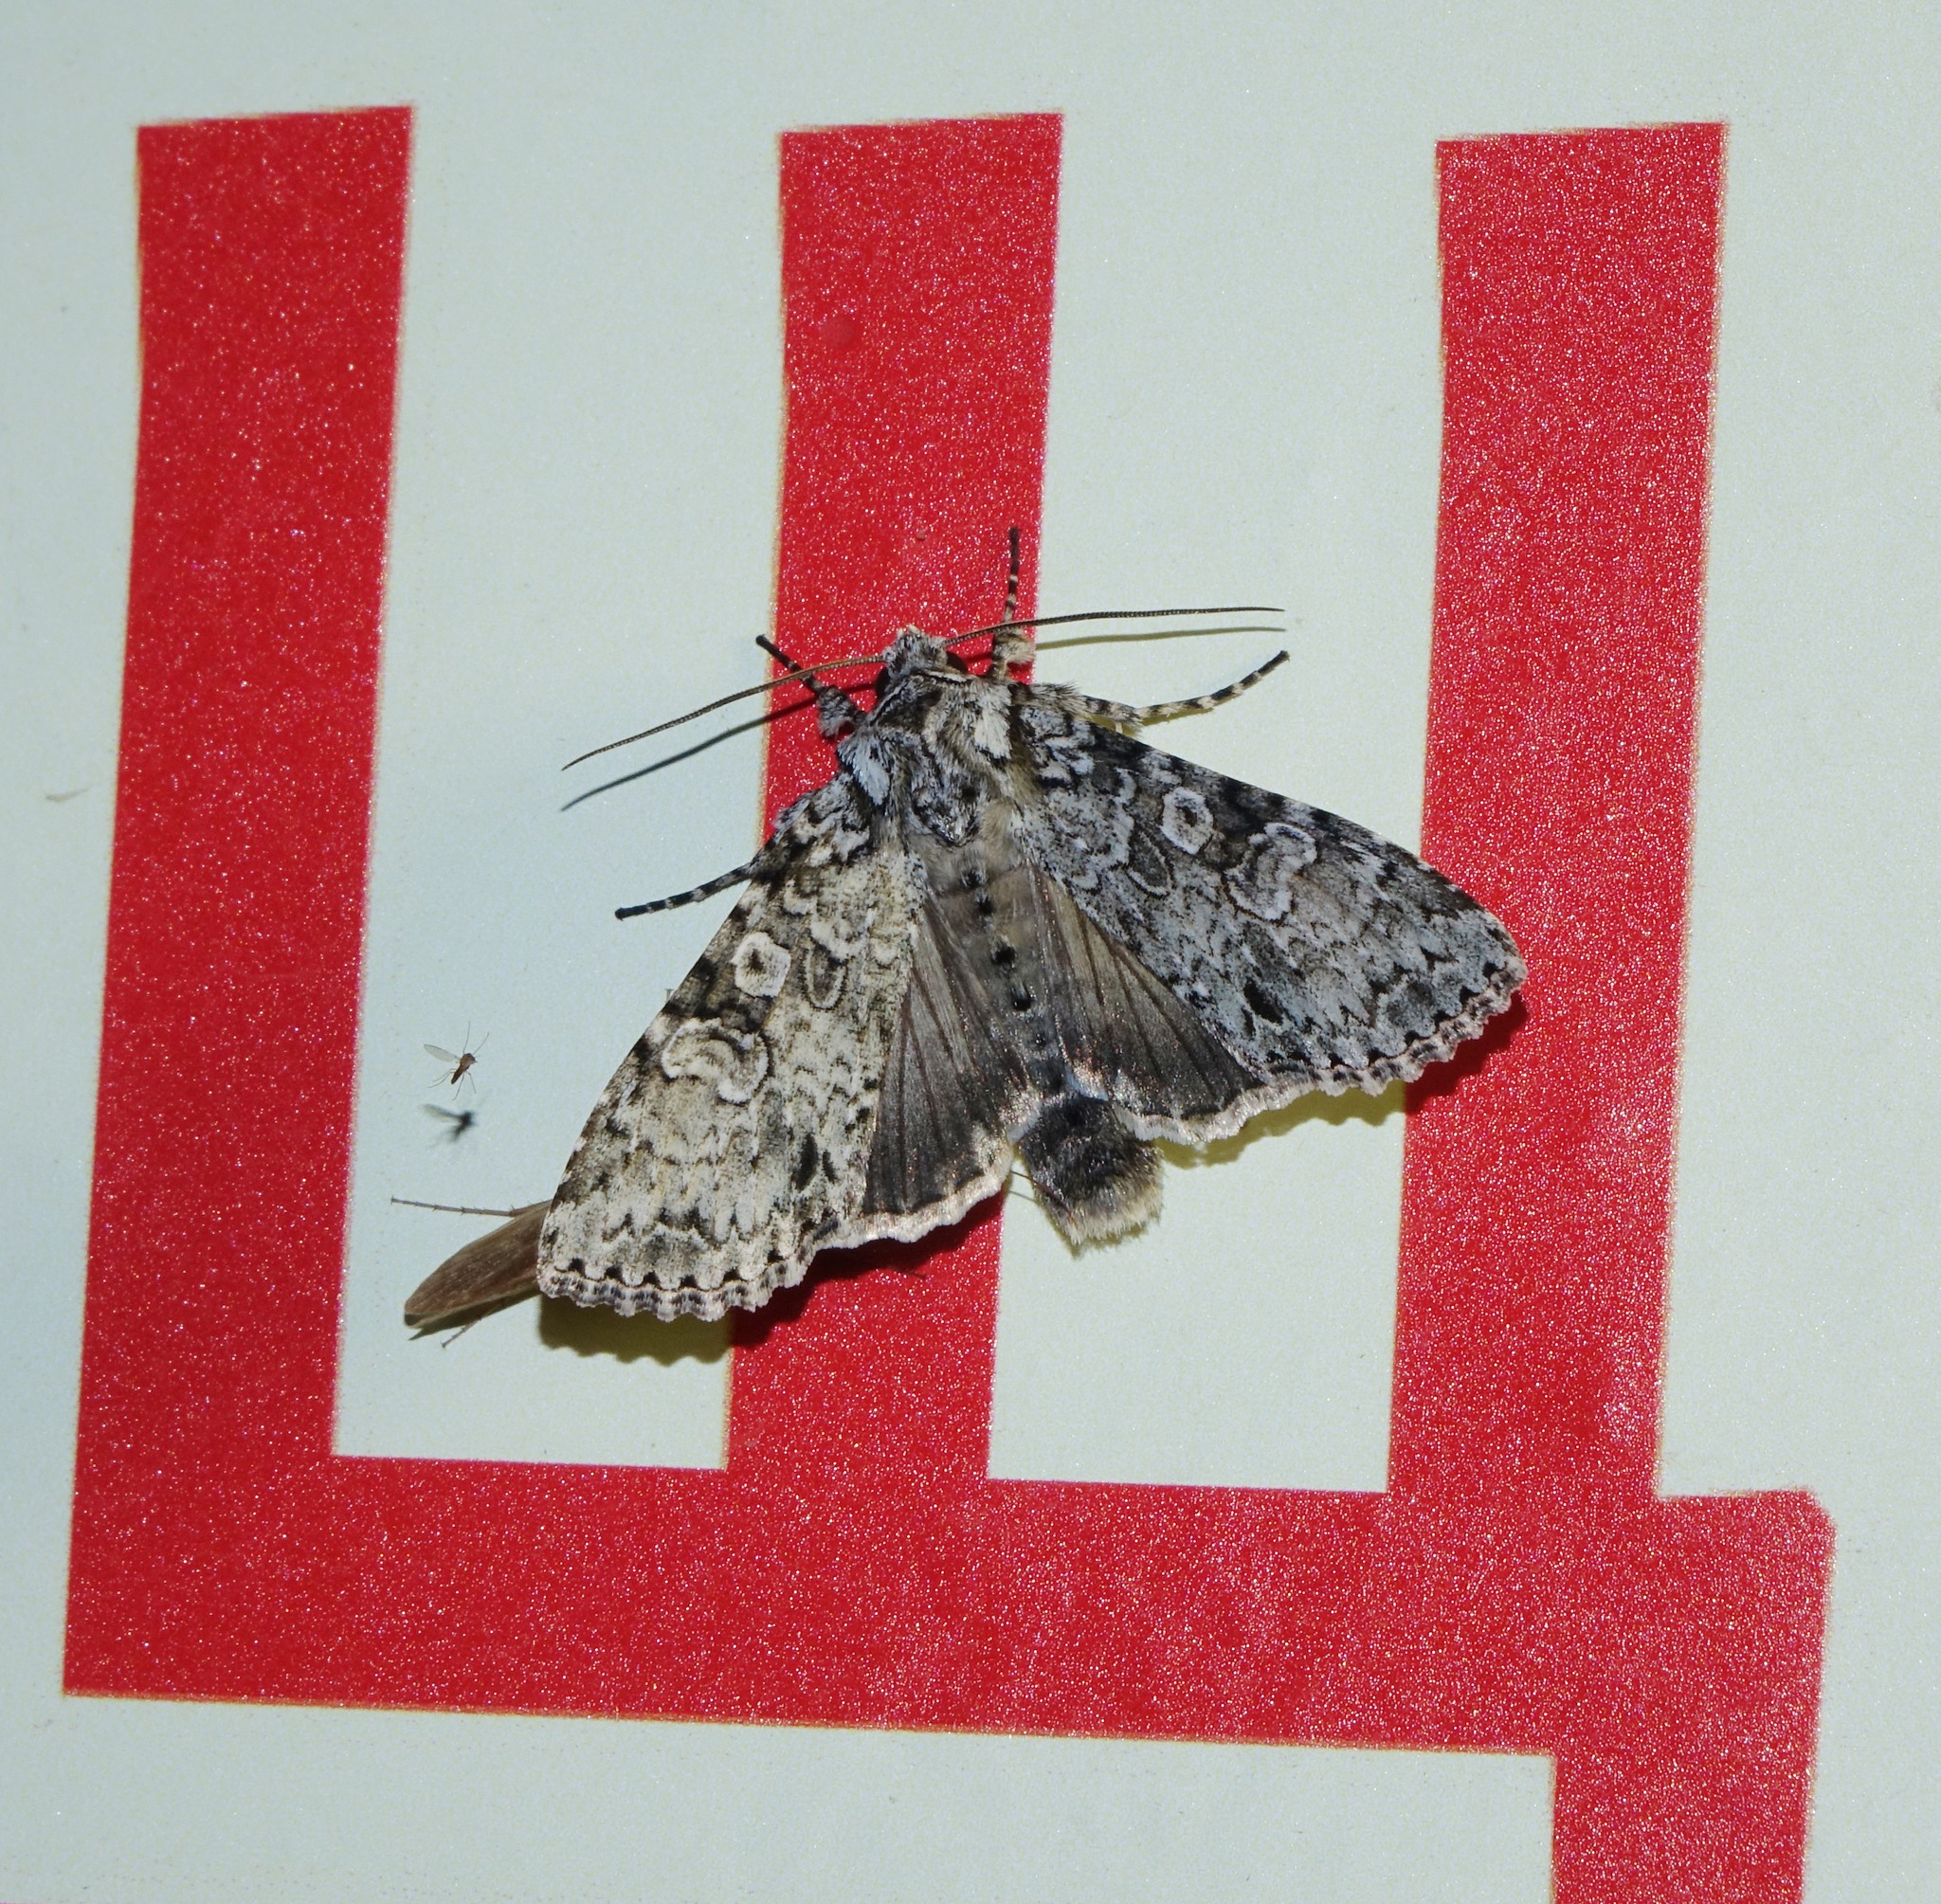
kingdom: Animalia
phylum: Arthropoda
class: Insecta
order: Lepidoptera
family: Noctuidae
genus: Polia
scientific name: Polia nebulosa
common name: Grey arches
